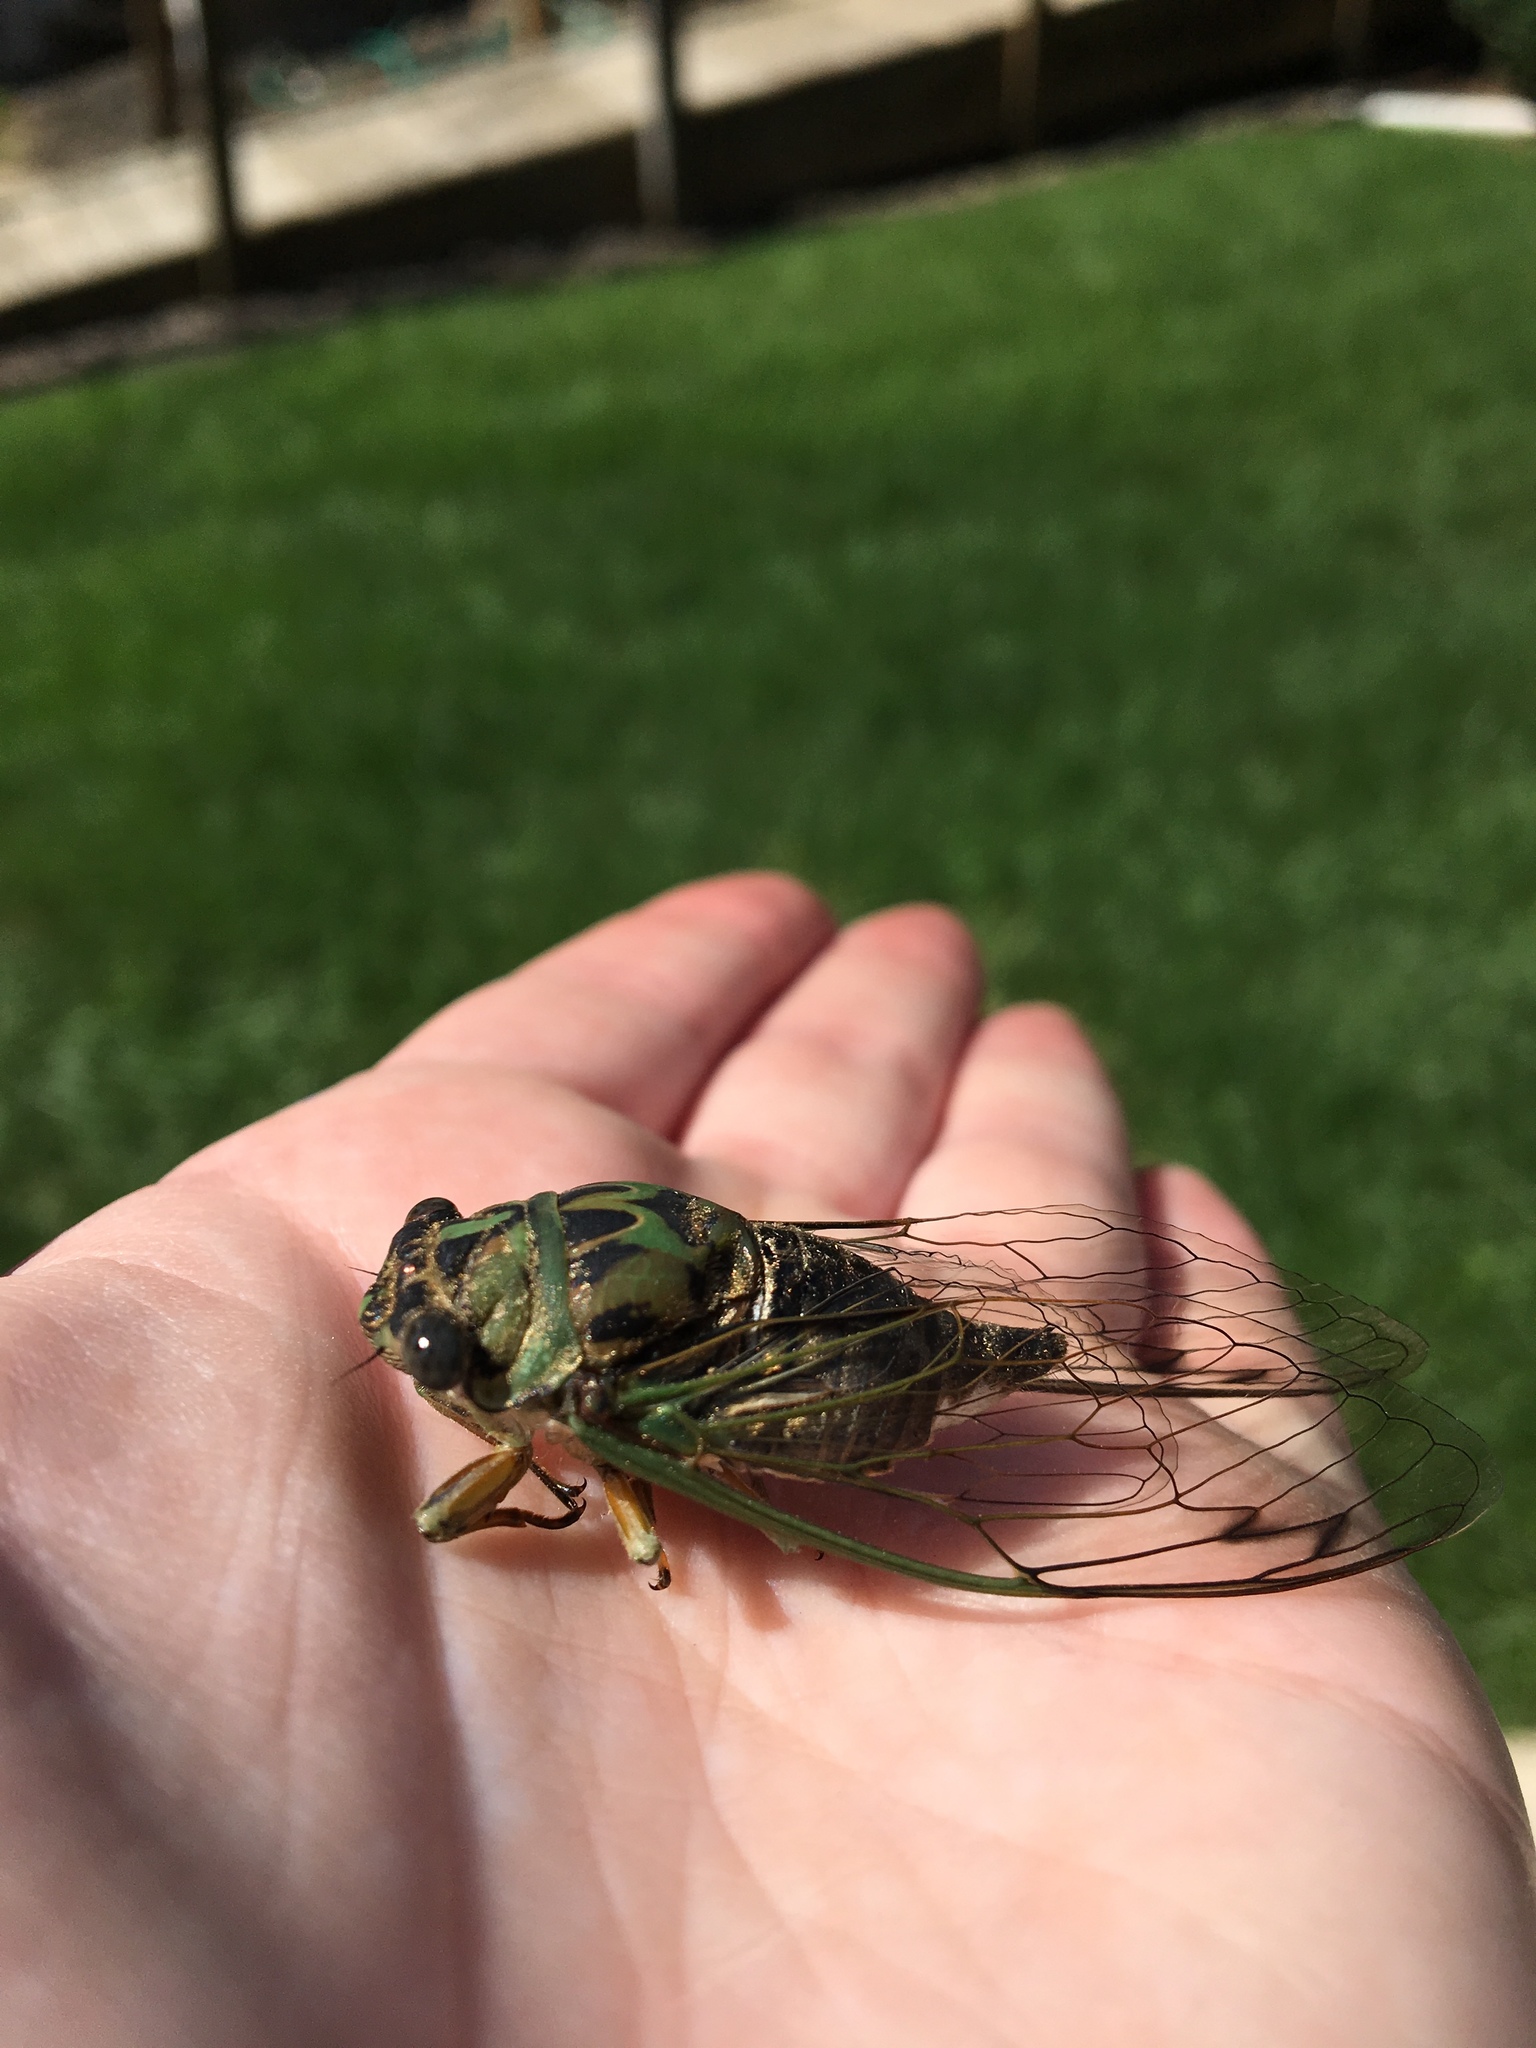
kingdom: Animalia
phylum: Arthropoda
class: Insecta
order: Hemiptera
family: Cicadidae
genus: Neotibicen
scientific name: Neotibicen pruinosus
